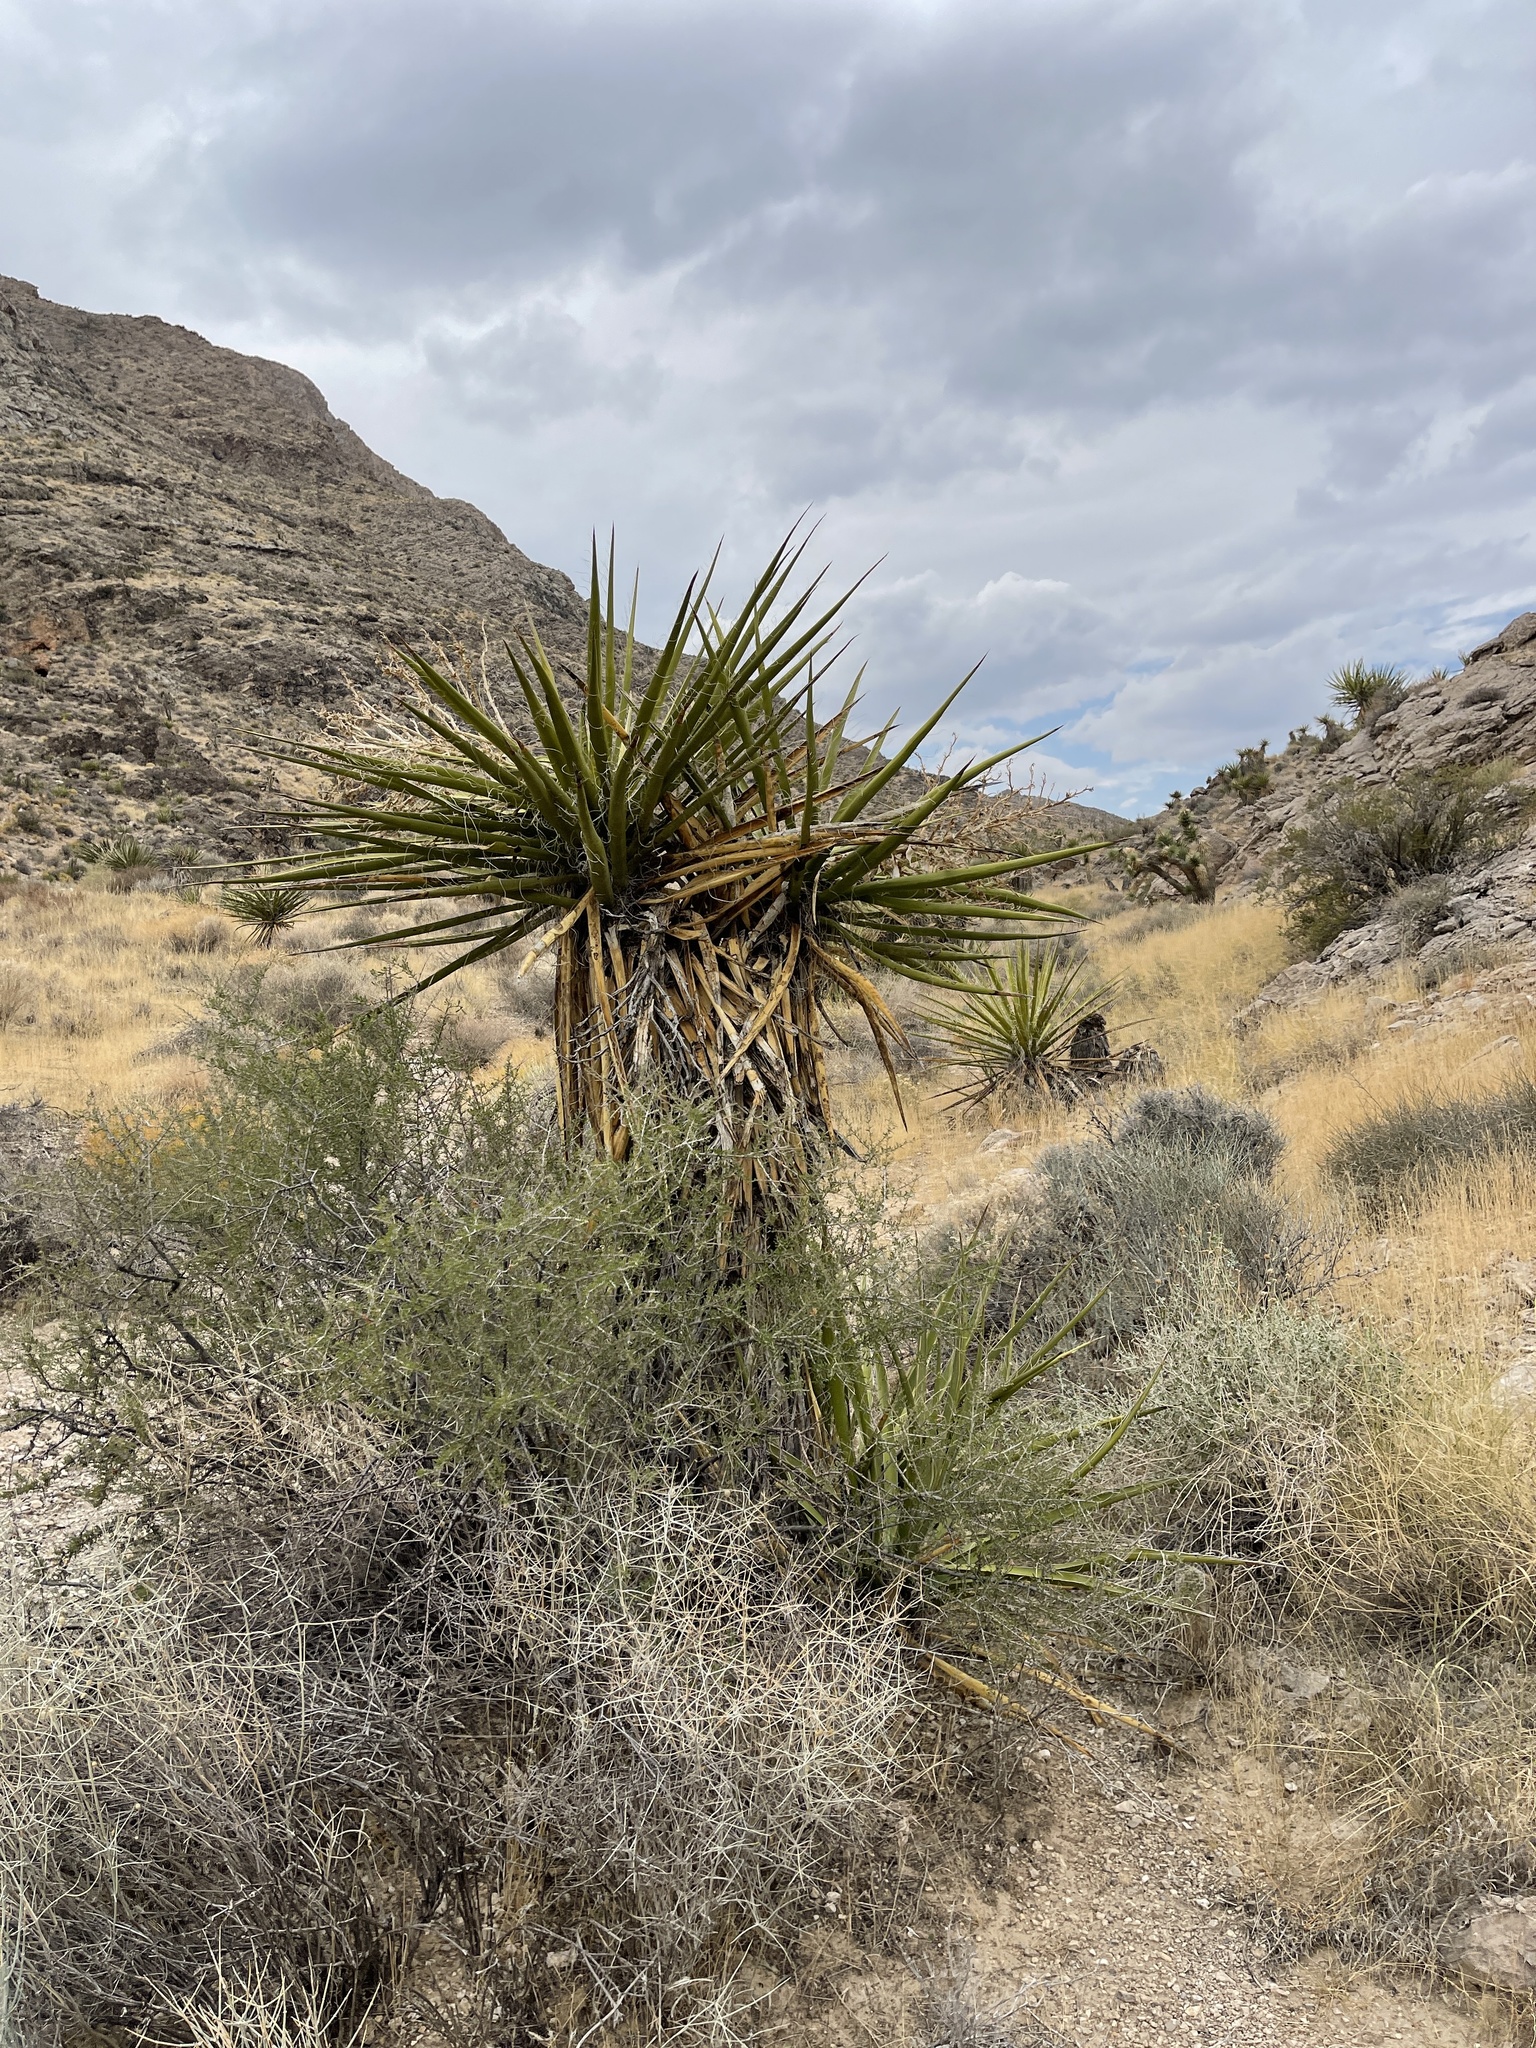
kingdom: Plantae
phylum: Tracheophyta
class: Liliopsida
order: Asparagales
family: Asparagaceae
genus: Yucca
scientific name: Yucca schidigera
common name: Mojave yucca
